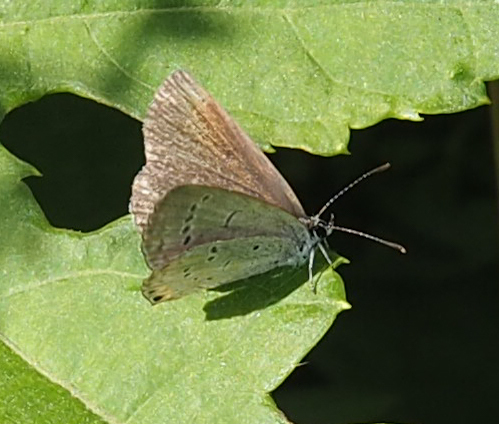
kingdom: Animalia
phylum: Arthropoda
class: Insecta
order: Lepidoptera
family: Lycaenidae
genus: Elkalyce
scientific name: Elkalyce comyntas
